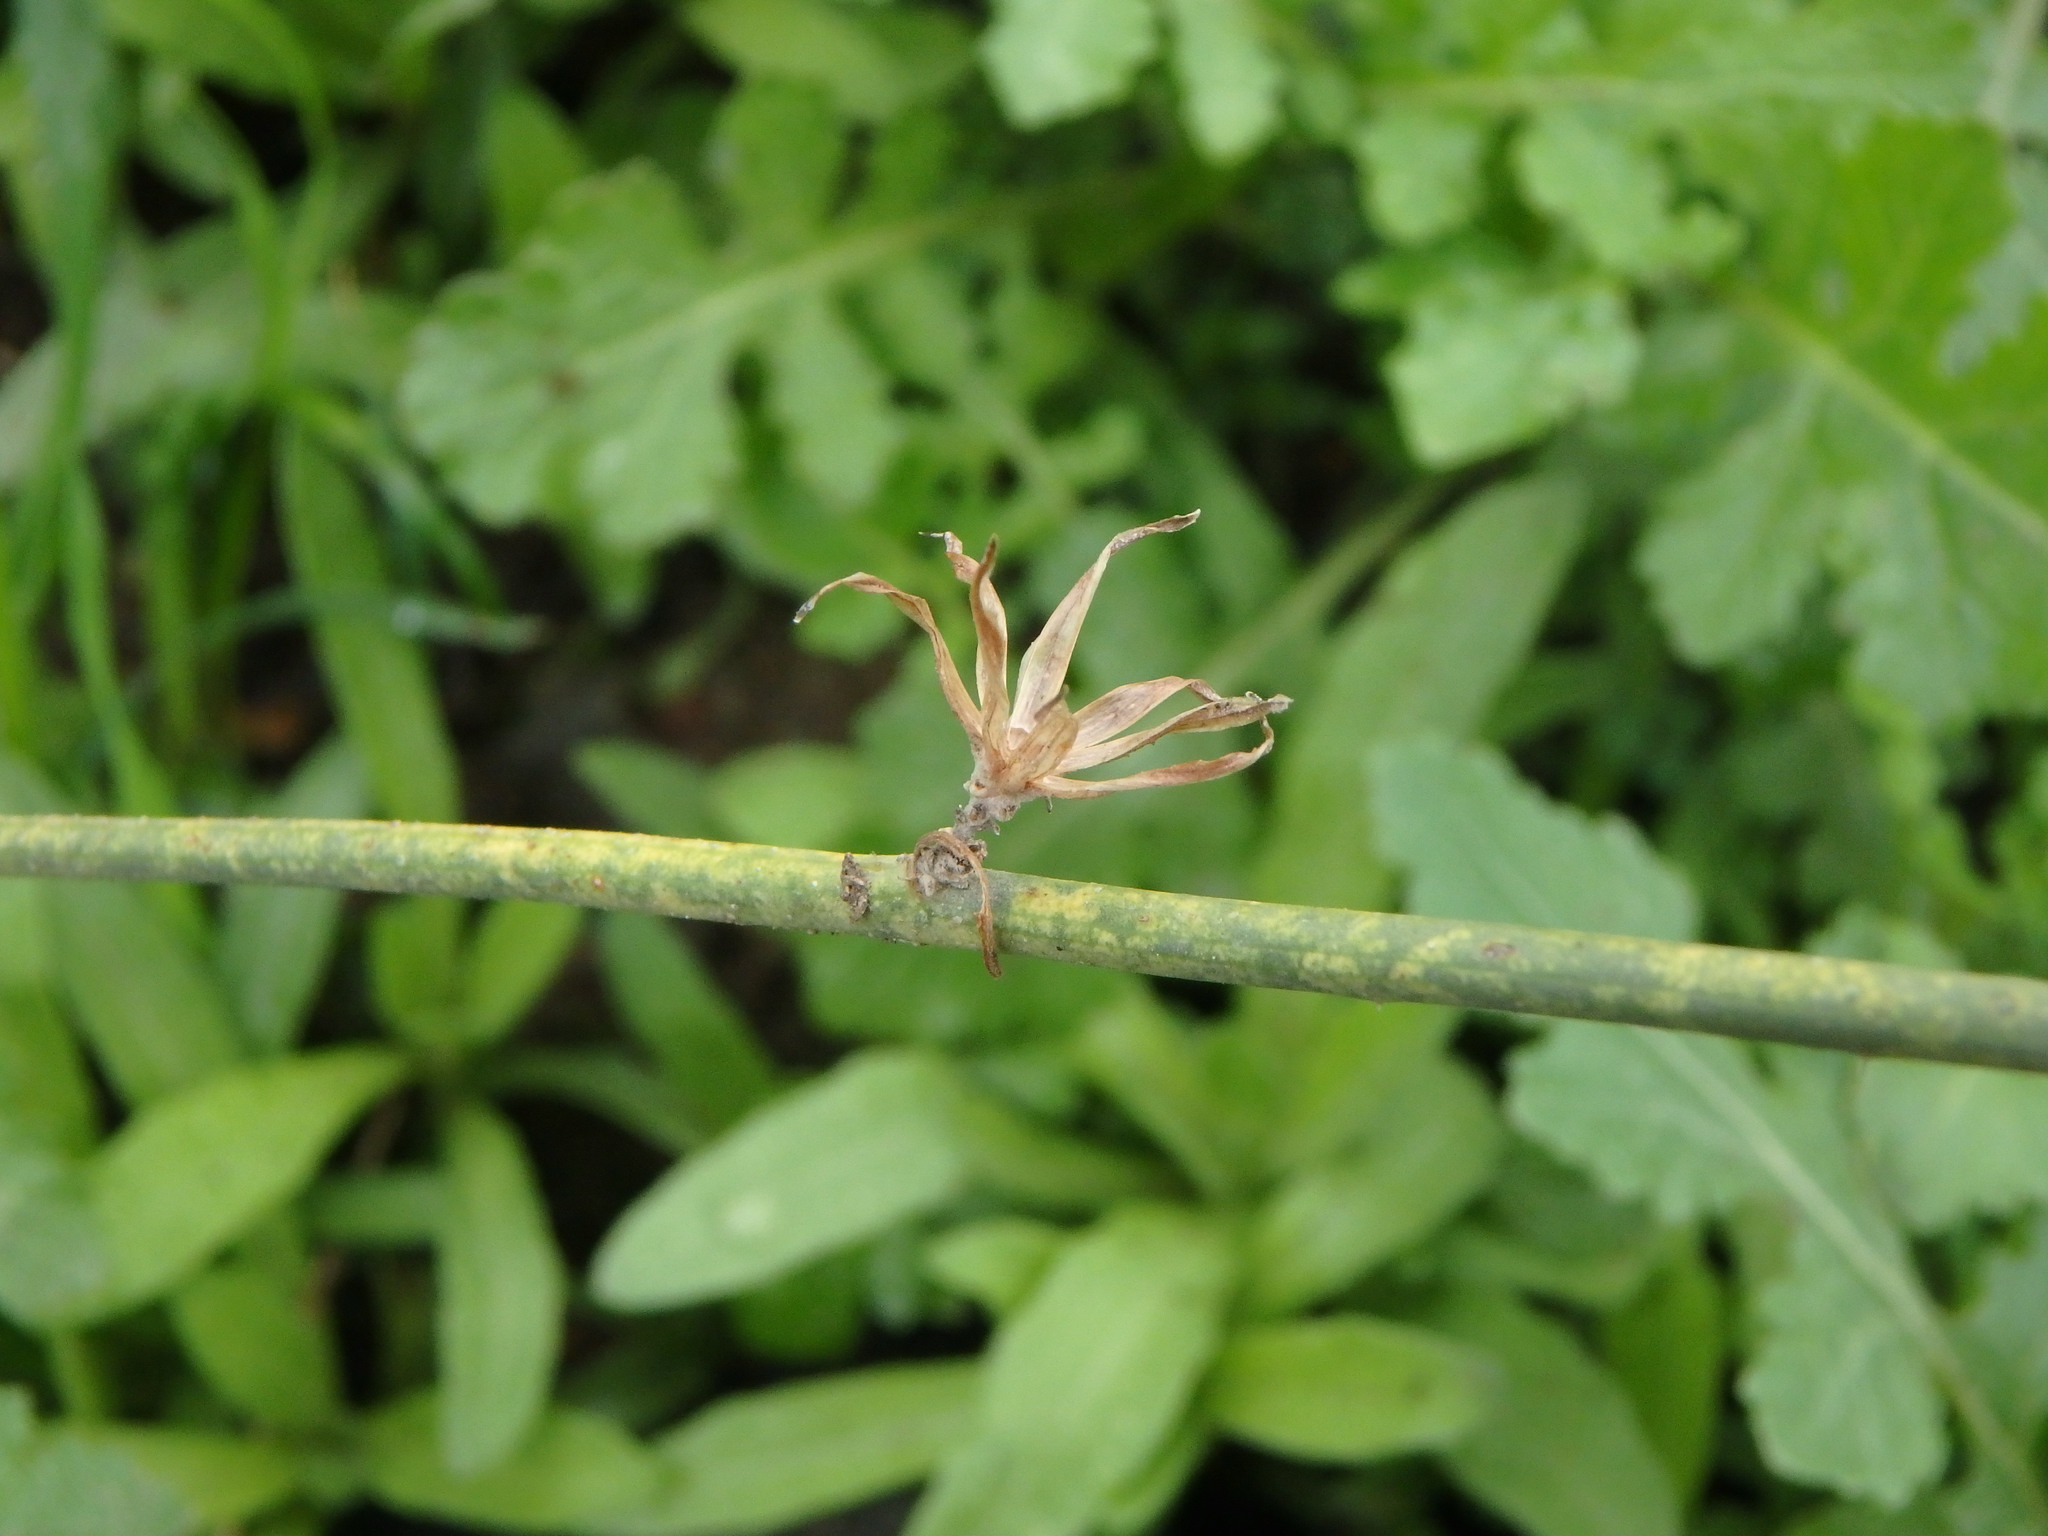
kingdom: Plantae
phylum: Tracheophyta
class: Magnoliopsida
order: Asterales
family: Asteraceae
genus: Chondrilla
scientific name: Chondrilla juncea
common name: Skeleton weed
